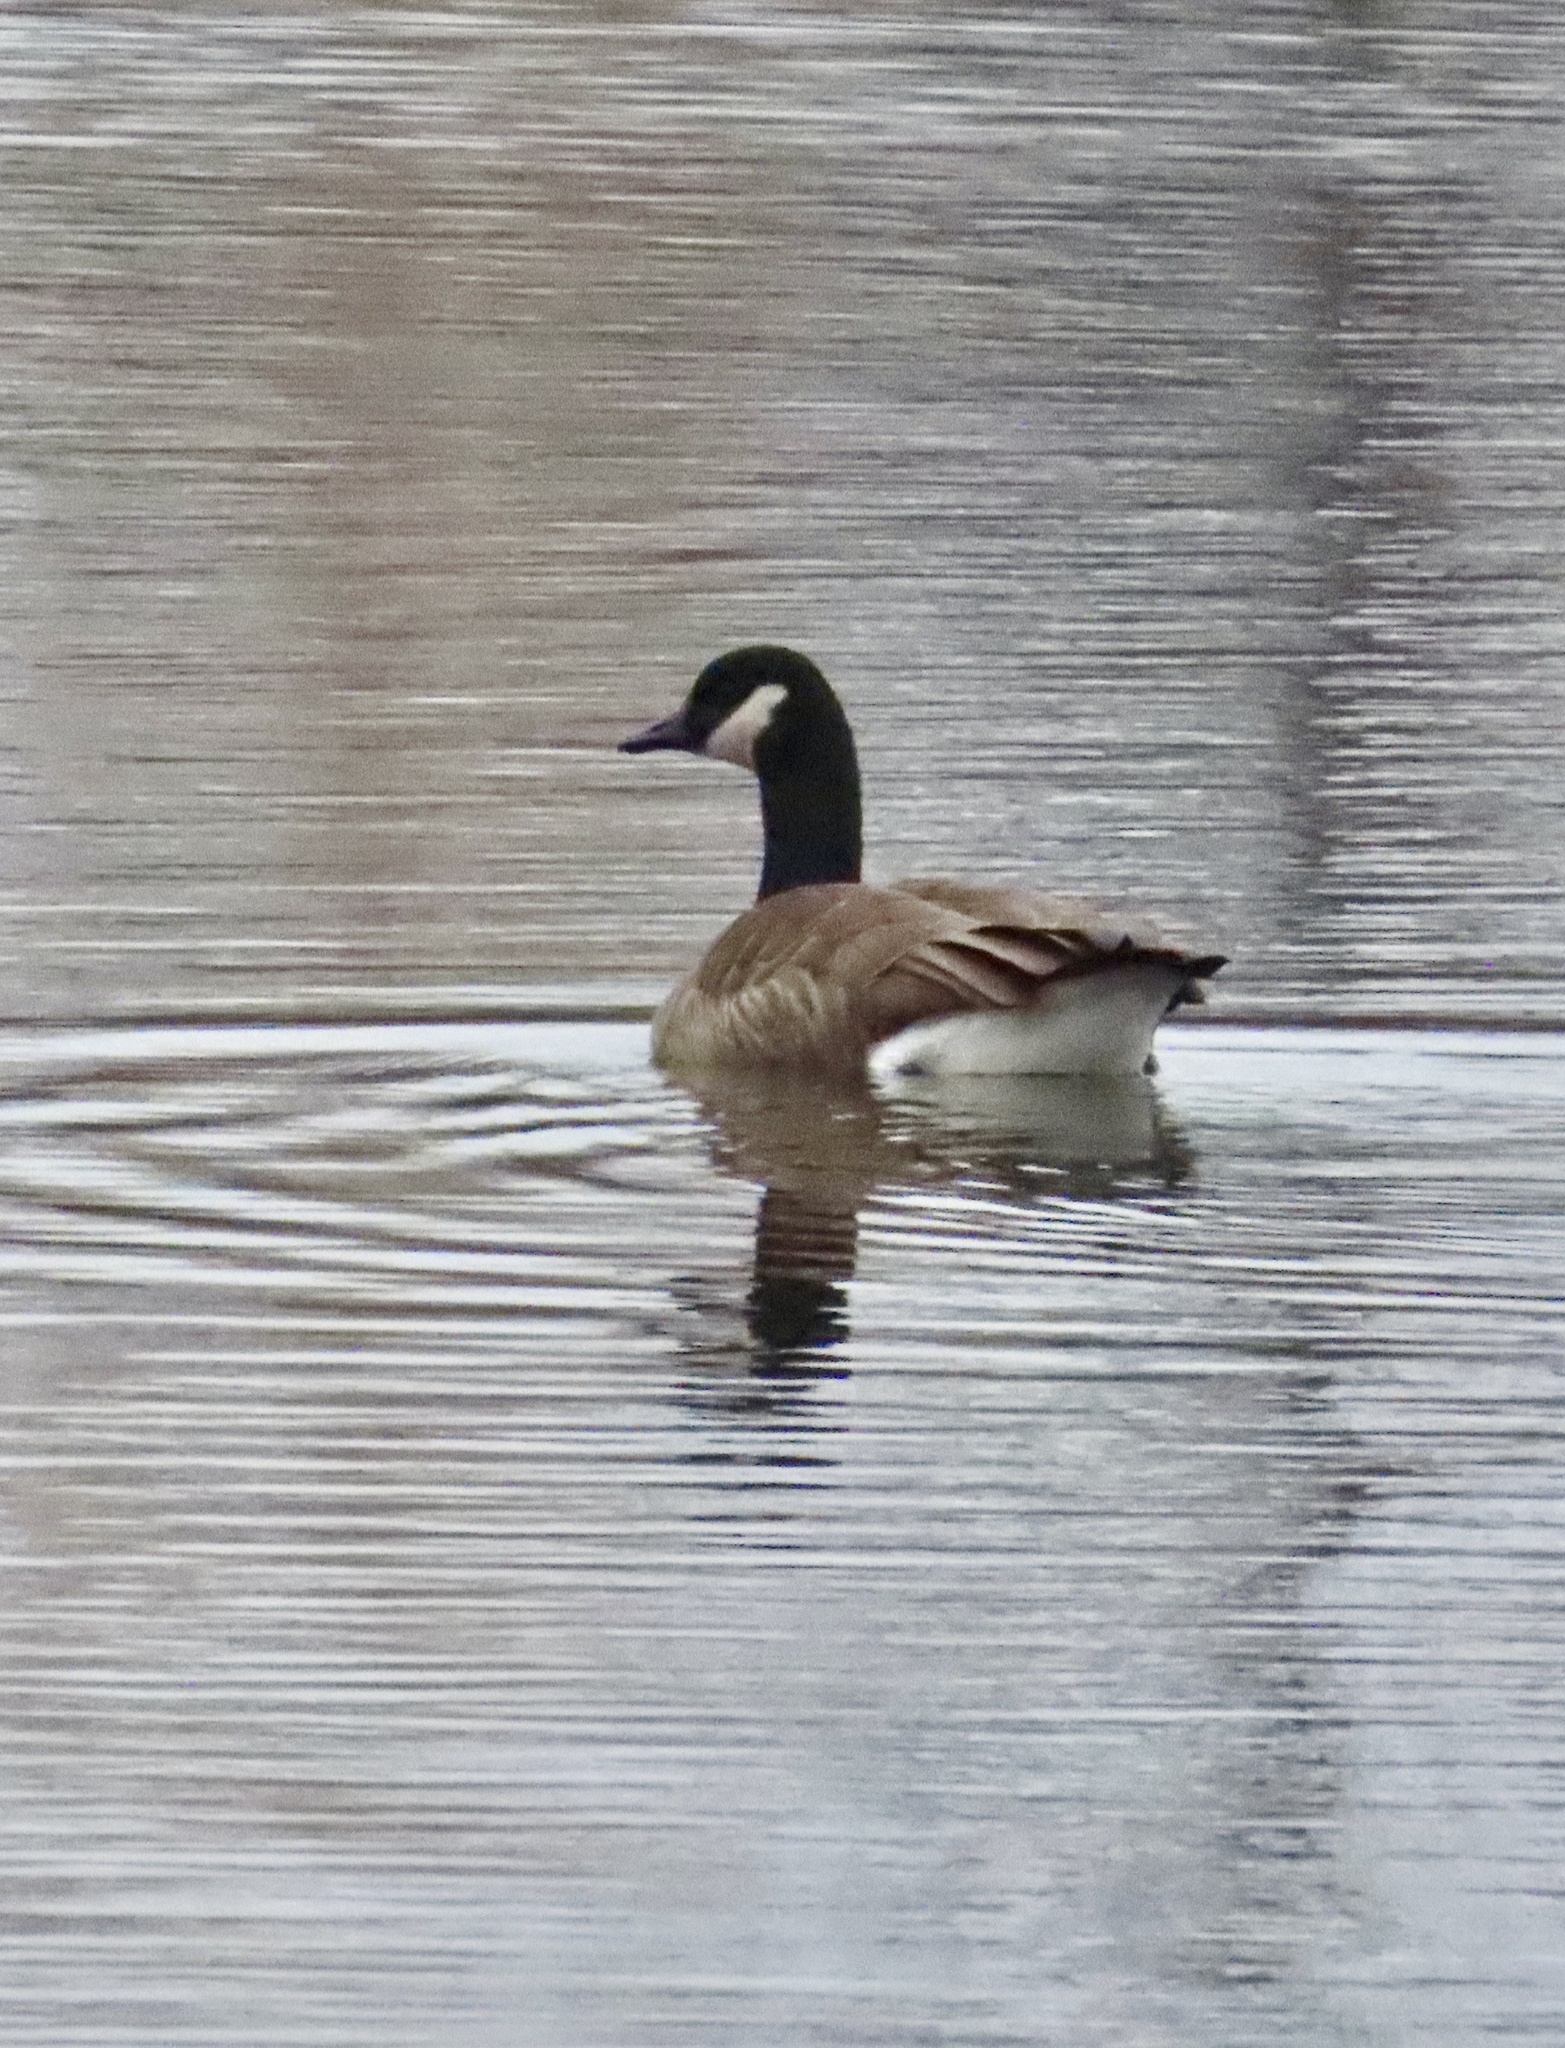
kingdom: Animalia
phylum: Chordata
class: Aves
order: Anseriformes
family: Anatidae
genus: Branta
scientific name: Branta canadensis
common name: Canada goose
